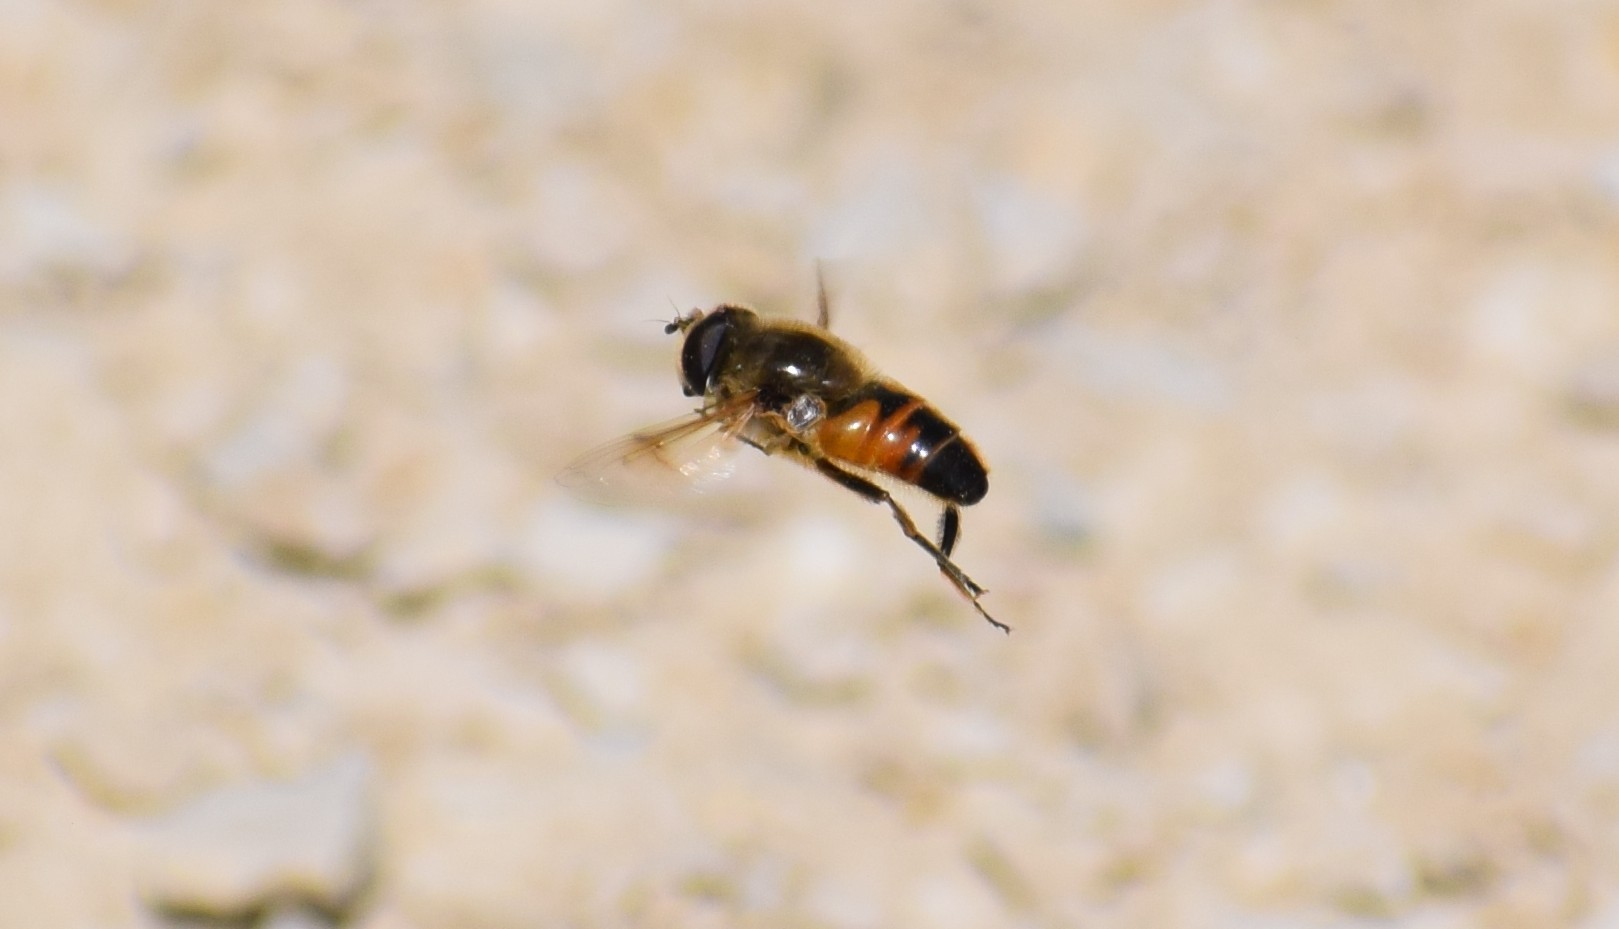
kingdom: Animalia
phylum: Arthropoda
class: Insecta
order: Diptera
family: Syrphidae
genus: Eristalis
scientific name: Eristalis tenax
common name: Drone fly
